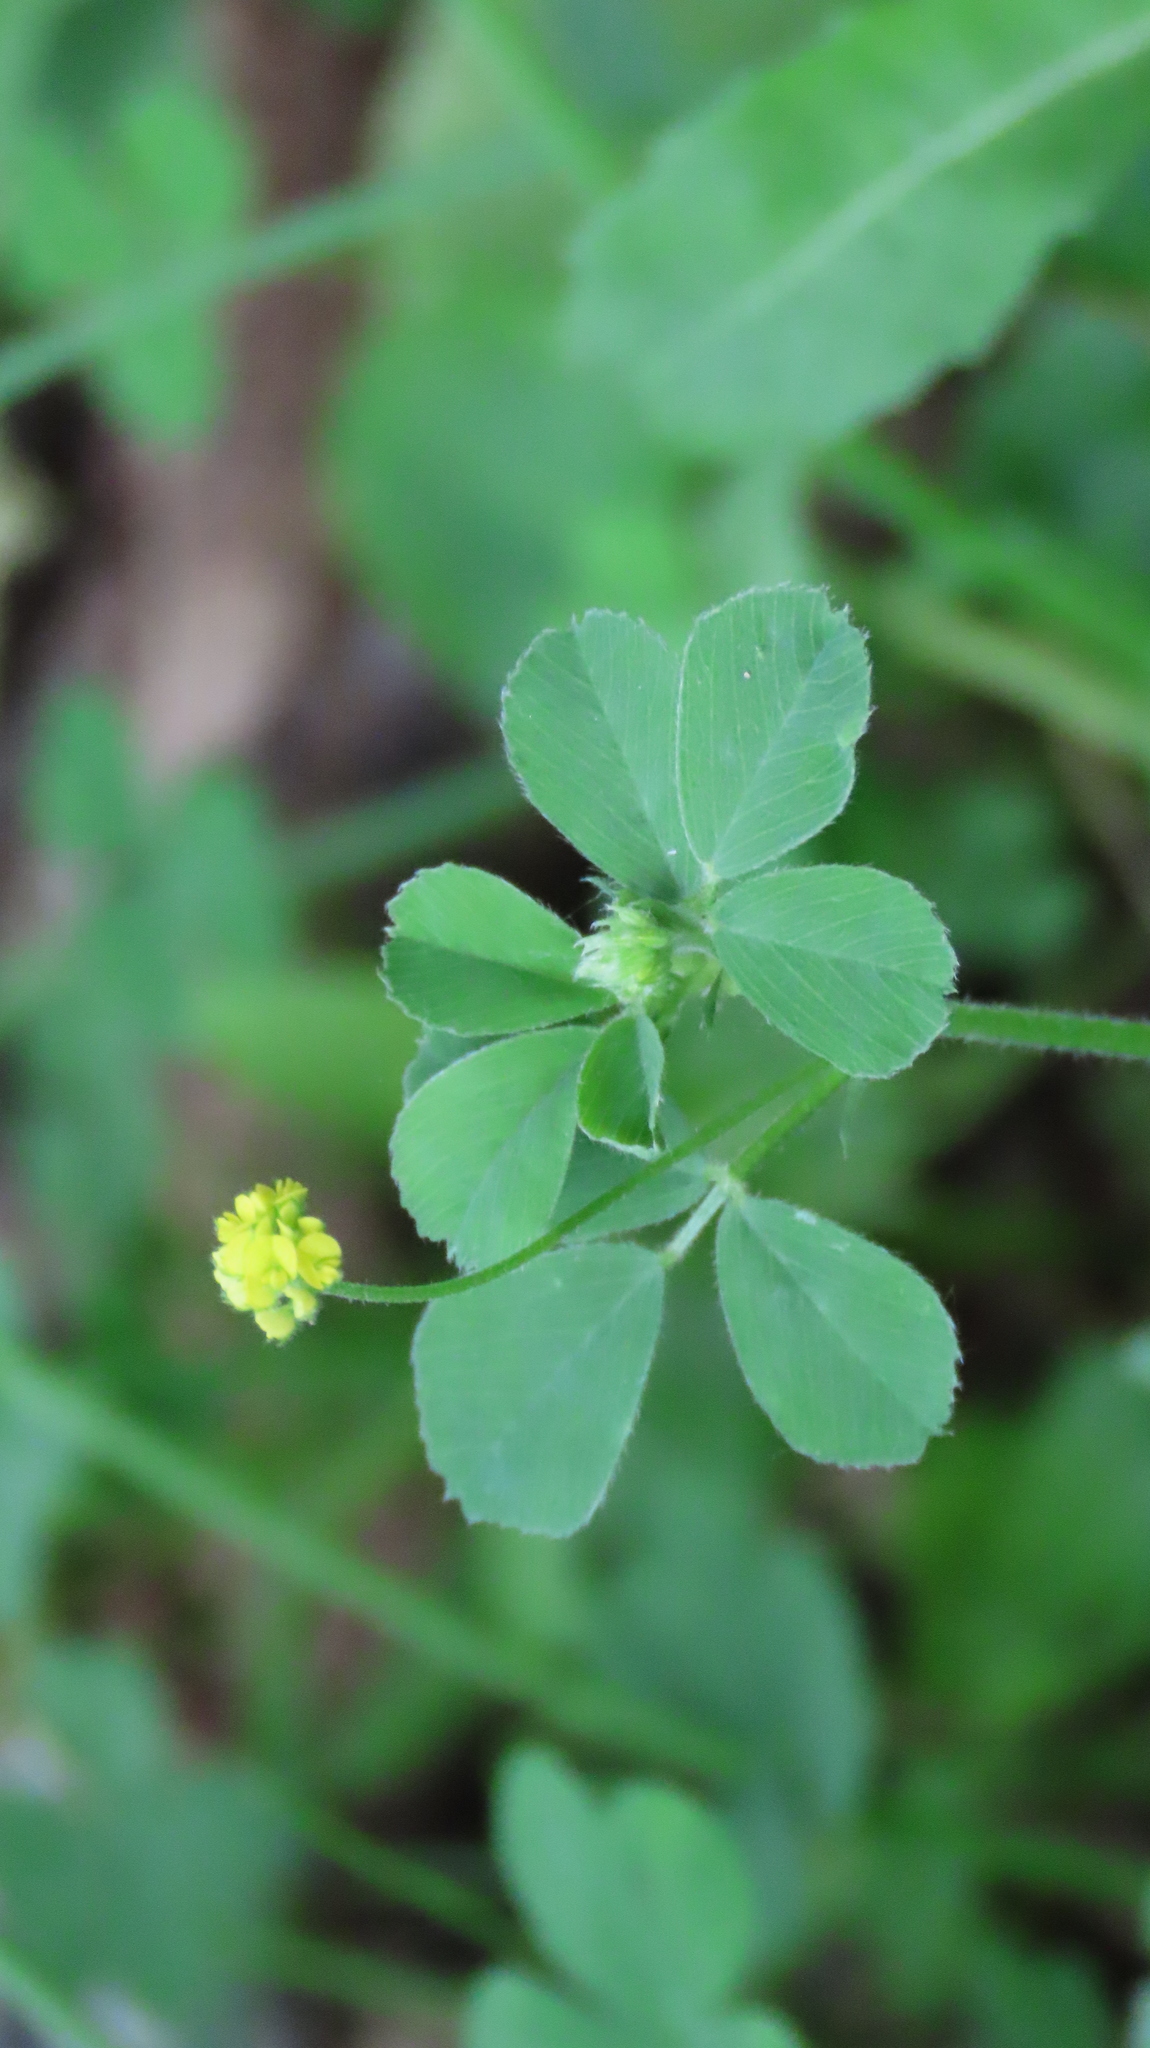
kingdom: Plantae
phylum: Tracheophyta
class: Magnoliopsida
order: Fabales
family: Fabaceae
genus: Medicago
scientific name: Medicago lupulina
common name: Black medick
